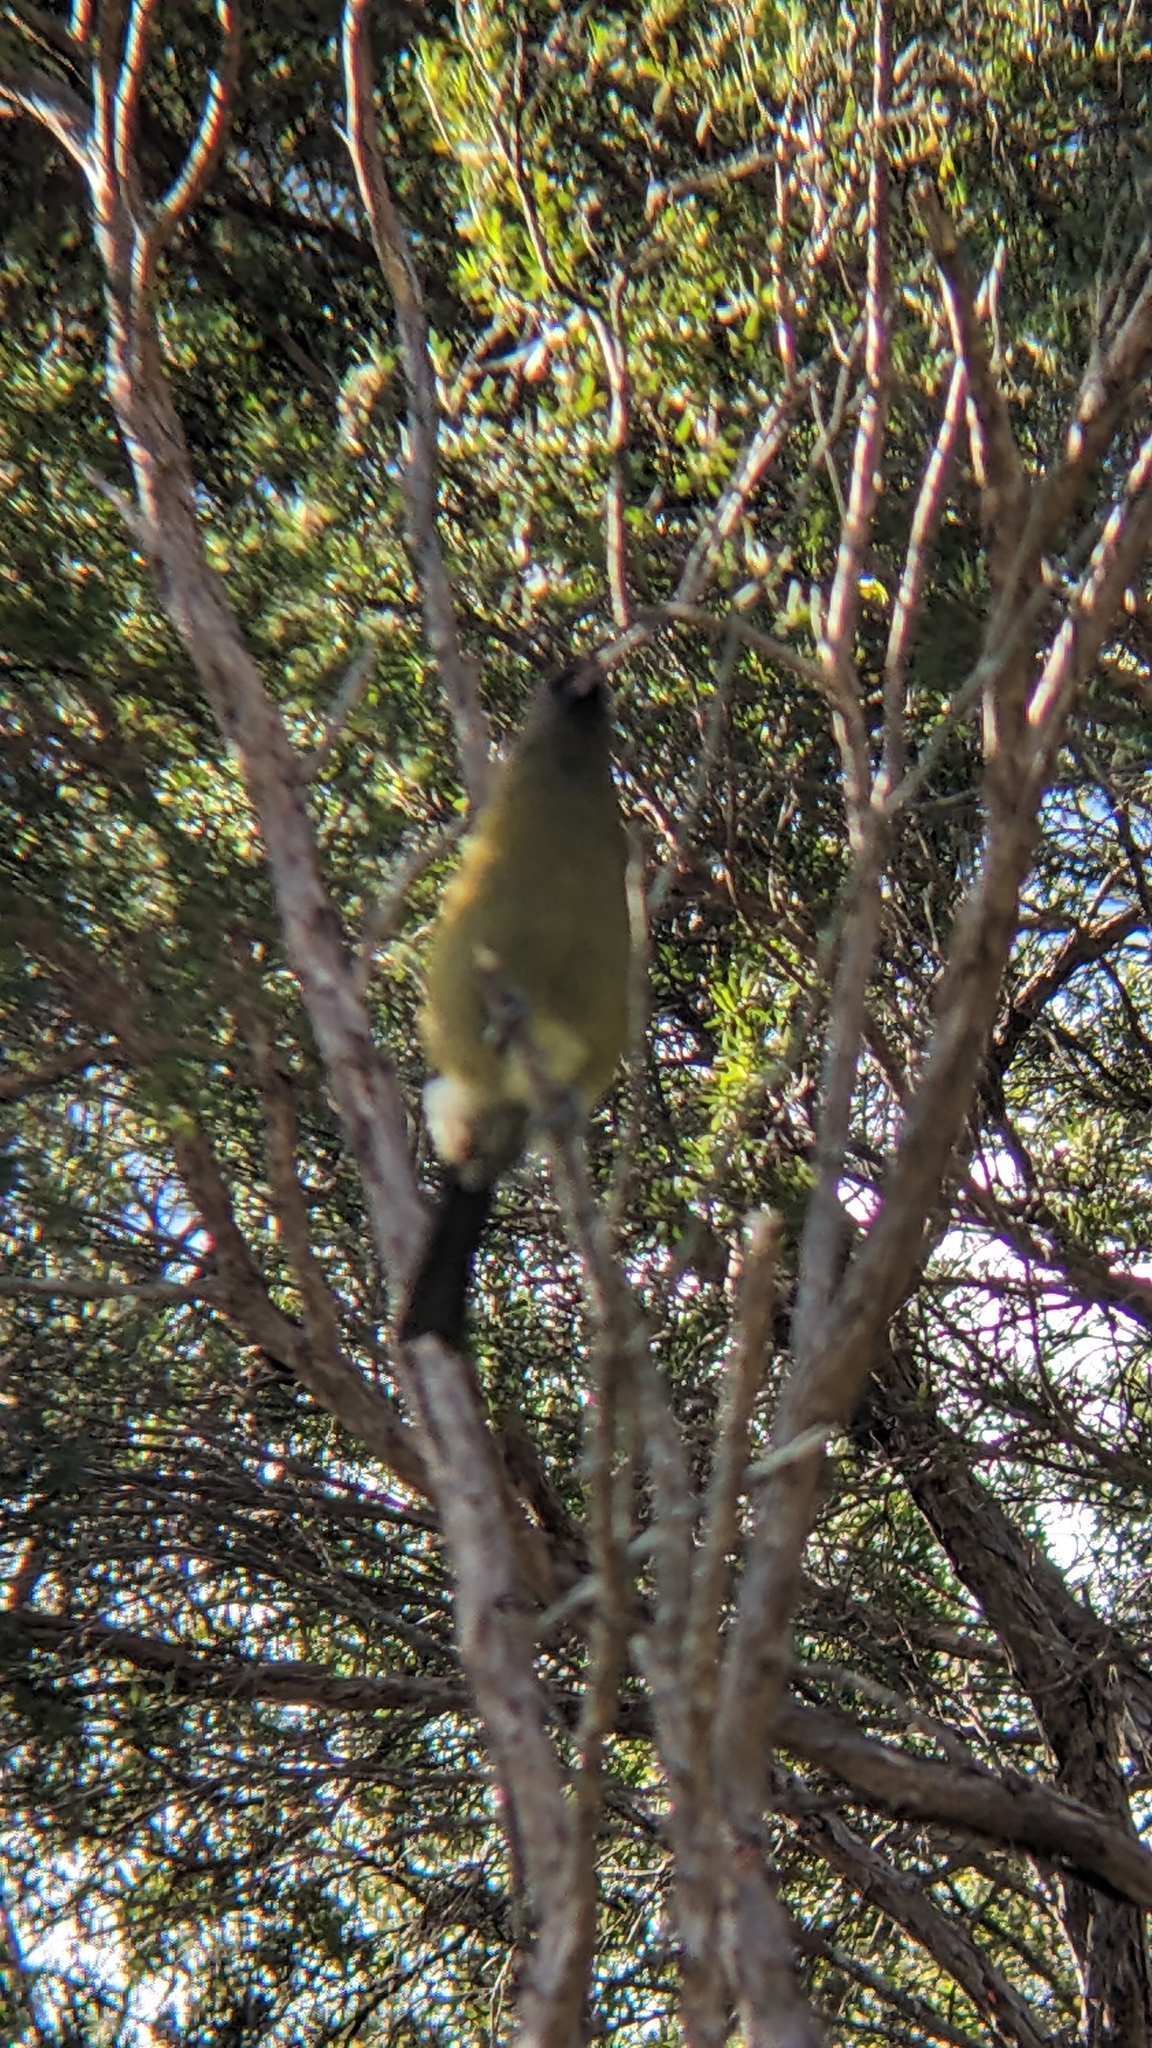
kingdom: Animalia
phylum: Chordata
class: Aves
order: Passeriformes
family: Meliphagidae
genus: Anthornis
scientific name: Anthornis melanura
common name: New zealand bellbird
